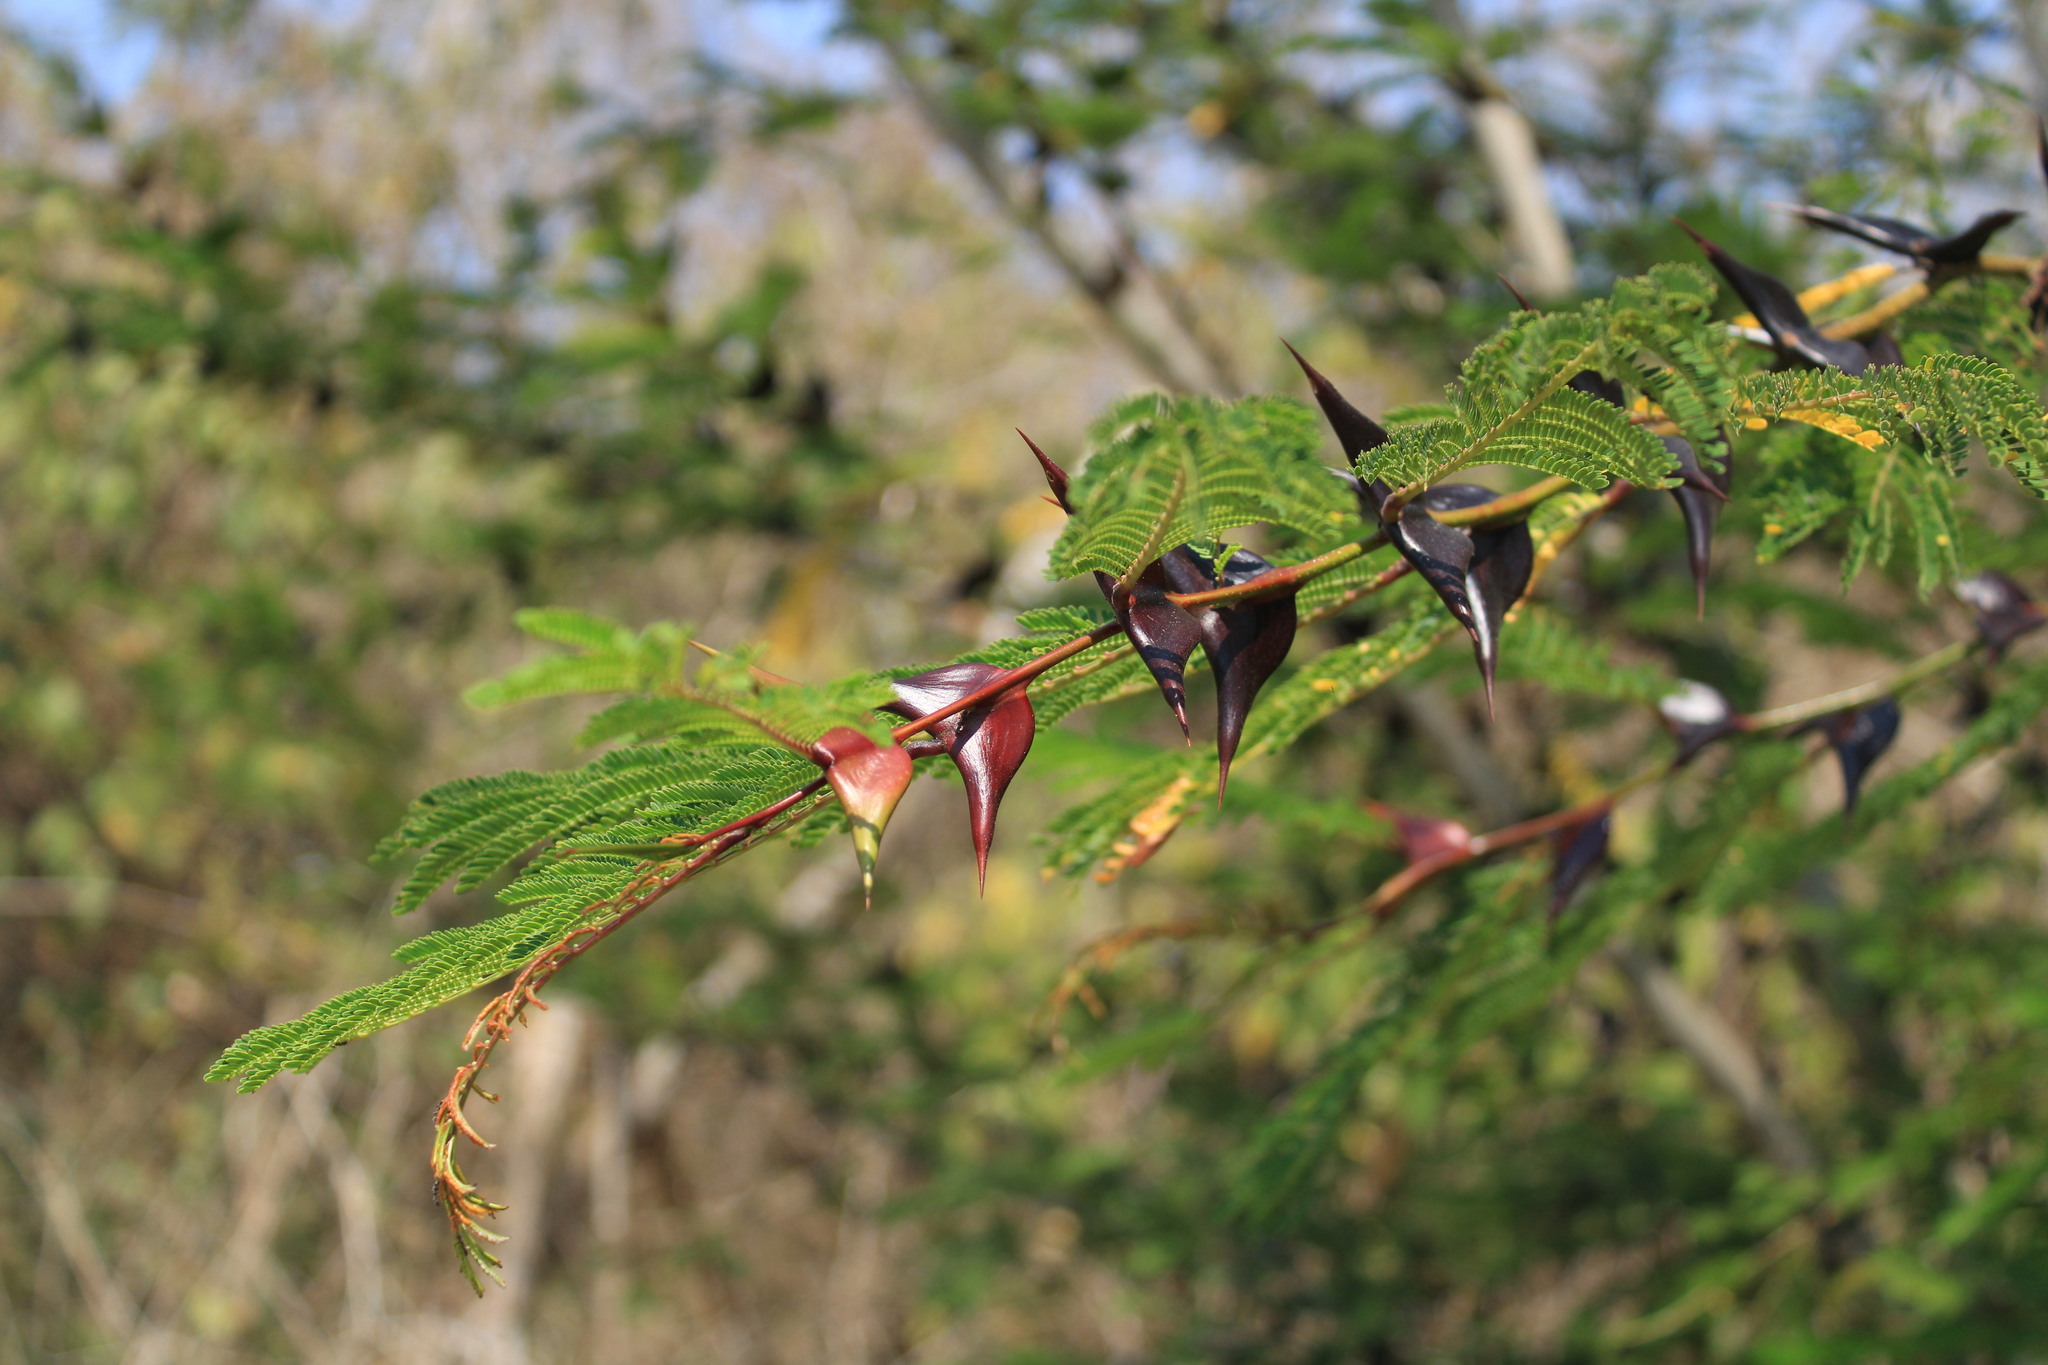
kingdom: Plantae
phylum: Tracheophyta
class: Magnoliopsida
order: Fabales
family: Fabaceae
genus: Vachellia
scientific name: Vachellia hindsii
